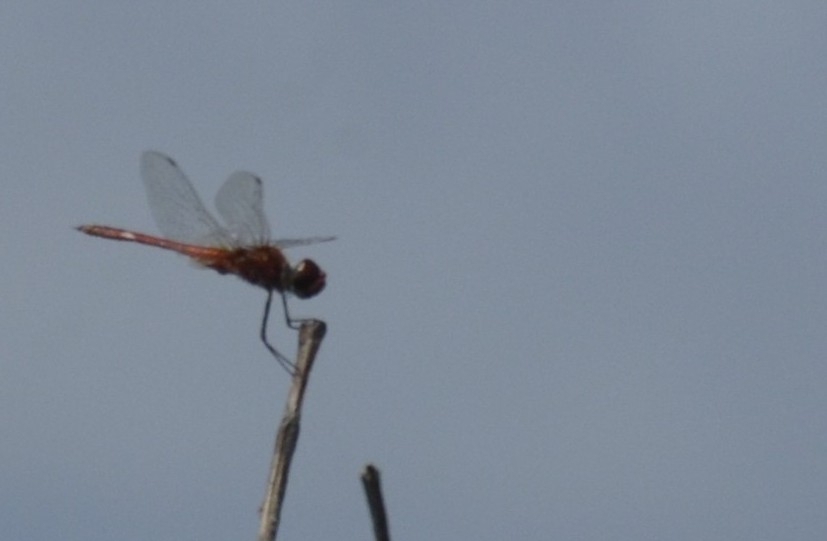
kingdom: Animalia
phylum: Arthropoda
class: Insecta
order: Odonata
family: Libellulidae
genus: Macrodiplax
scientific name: Macrodiplax cora
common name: Coastal glider
